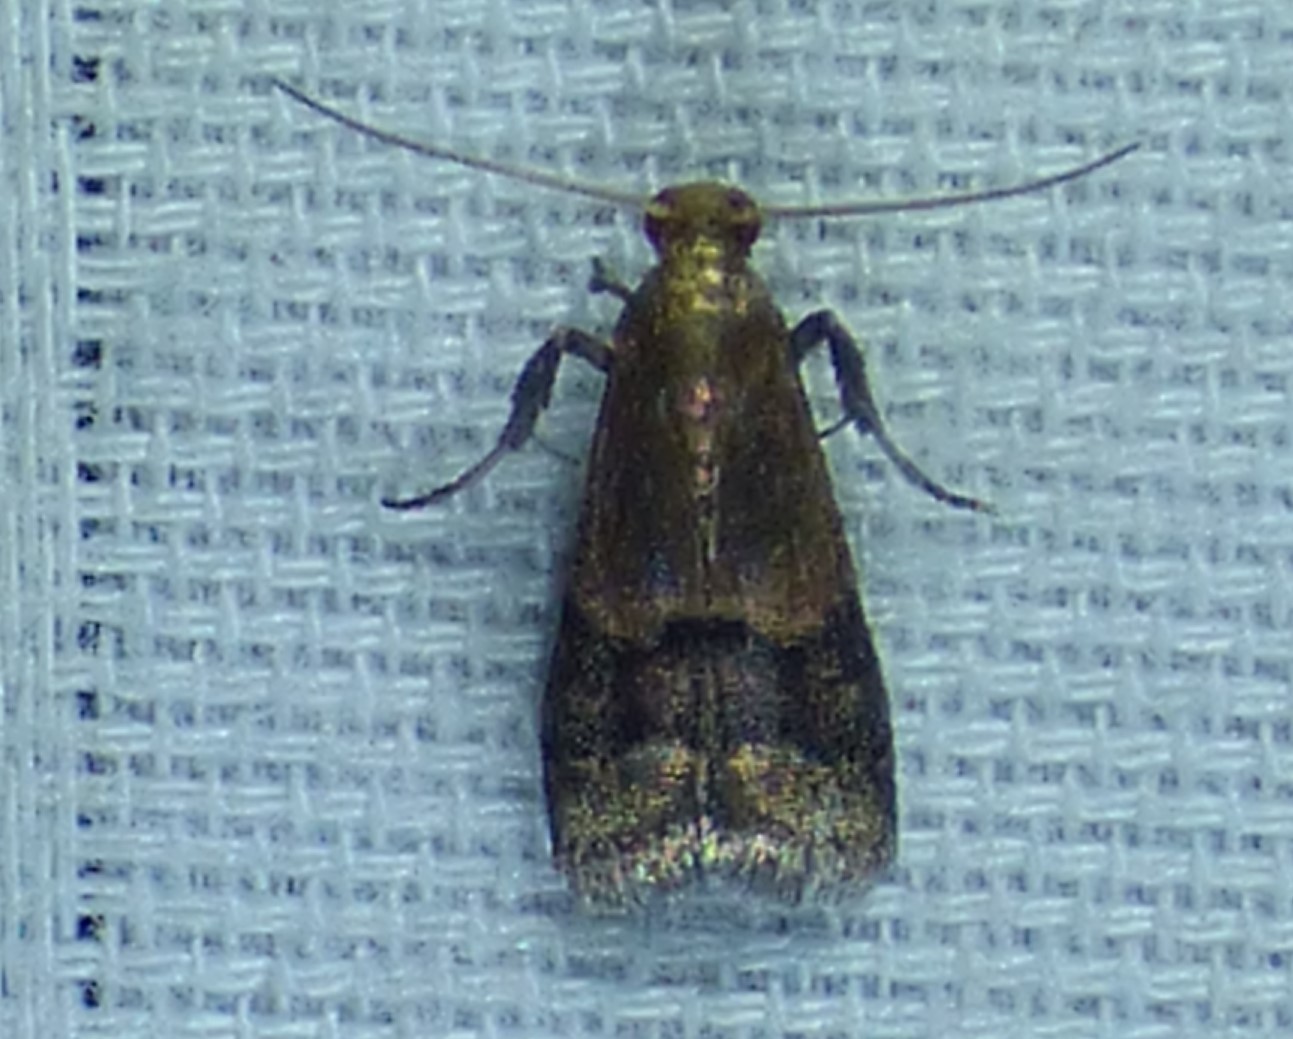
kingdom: Animalia
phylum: Arthropoda
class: Insecta
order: Lepidoptera
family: Pyralidae
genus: Eulogia
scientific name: Eulogia ochrifrontella
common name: Broad-banded eulogia moth
